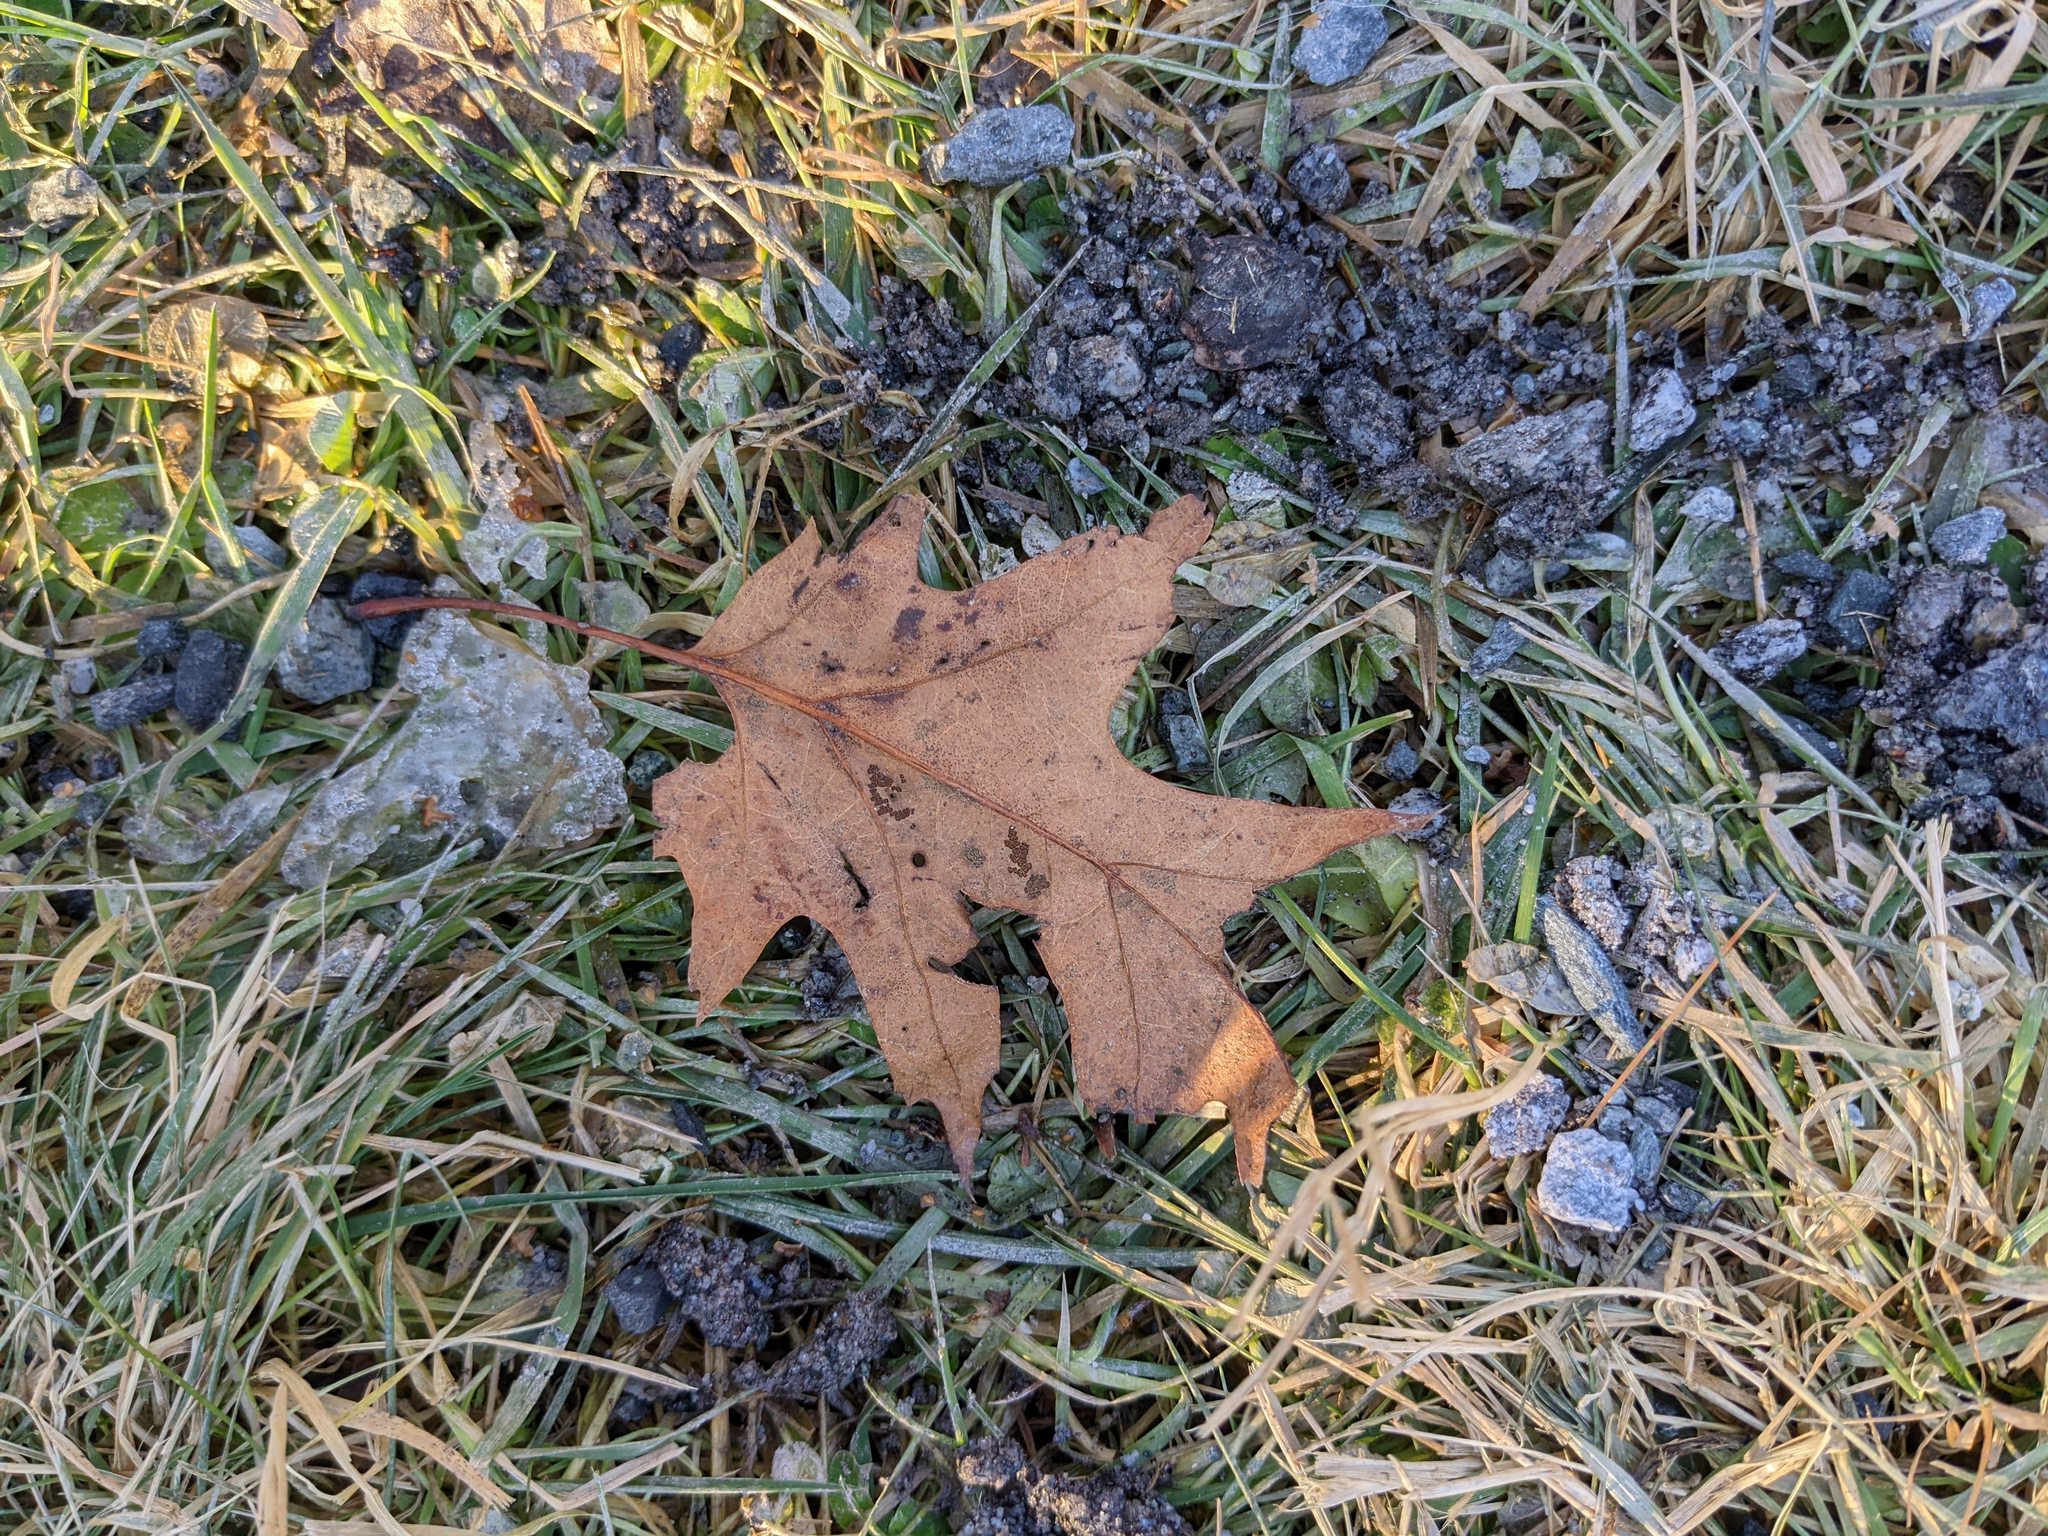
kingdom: Plantae
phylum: Tracheophyta
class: Magnoliopsida
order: Fagales
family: Fagaceae
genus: Quercus
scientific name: Quercus rubra
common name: Red oak
